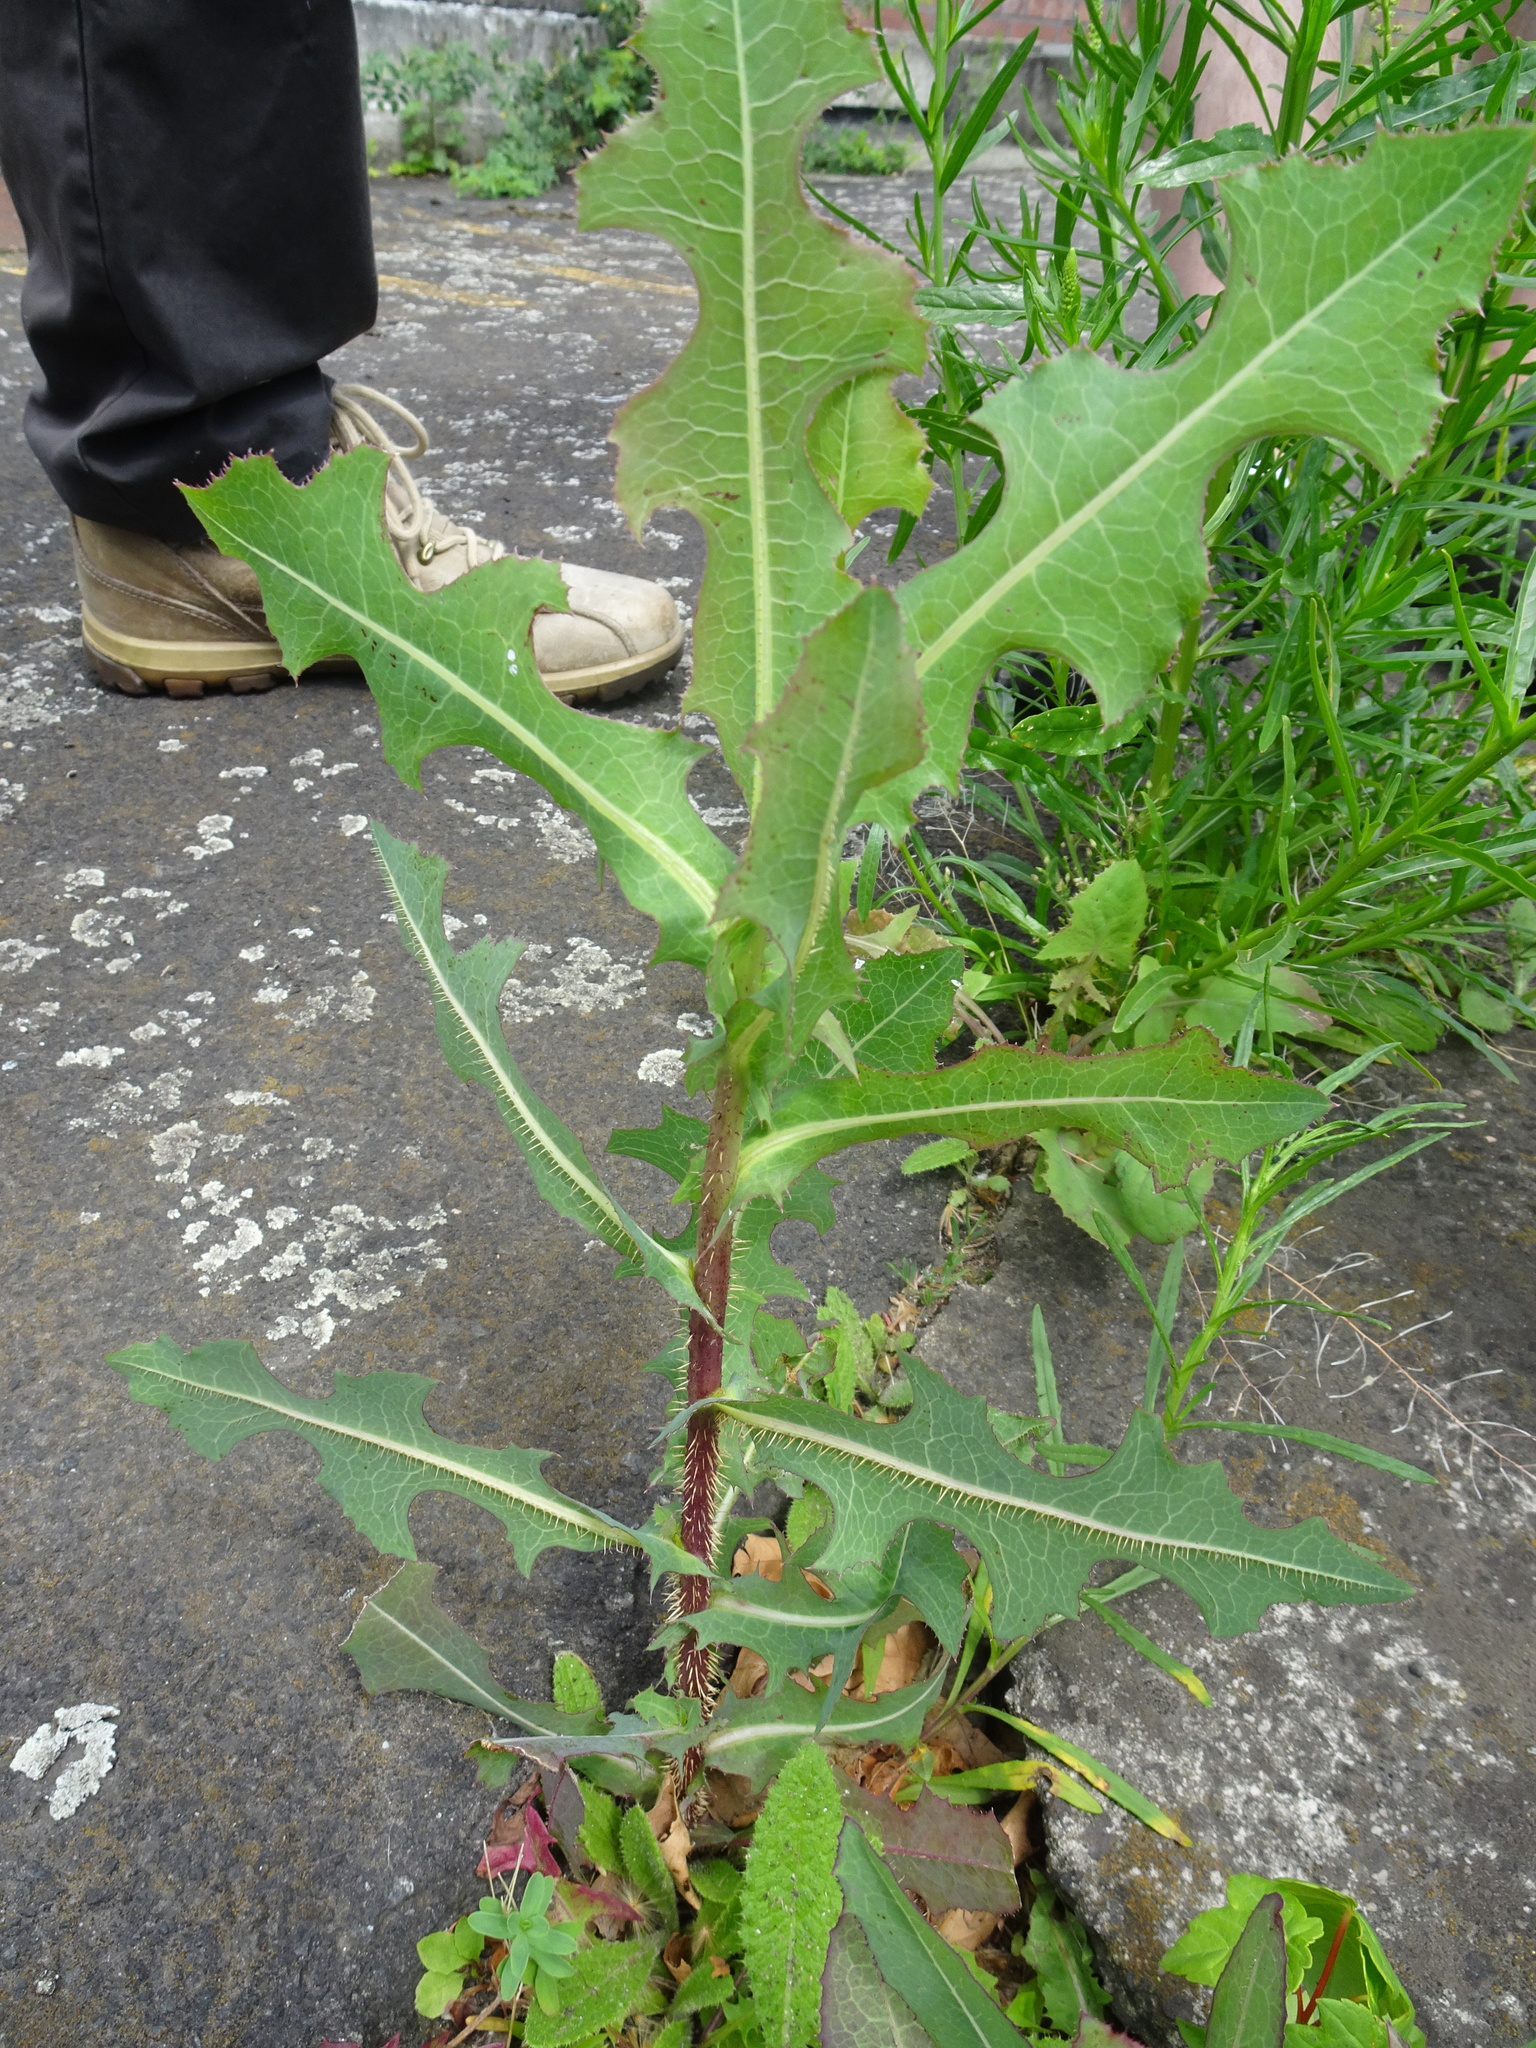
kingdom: Plantae
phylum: Tracheophyta
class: Magnoliopsida
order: Asterales
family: Asteraceae
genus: Lactuca
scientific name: Lactuca serriola
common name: Prickly lettuce
